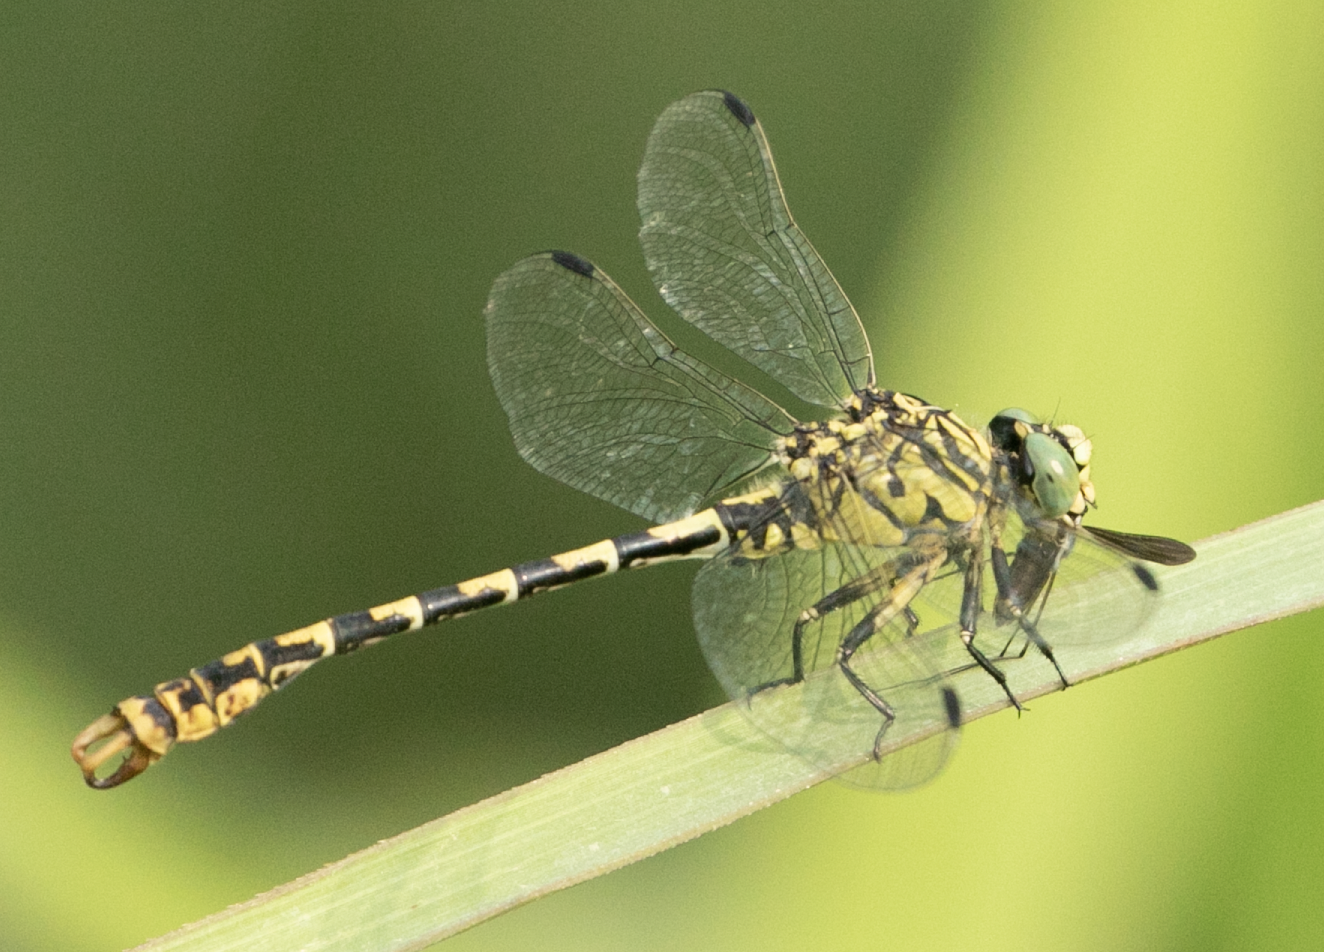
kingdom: Animalia
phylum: Arthropoda
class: Insecta
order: Odonata
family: Gomphidae
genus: Onychogomphus
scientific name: Onychogomphus forcipatus
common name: Small pincertail
